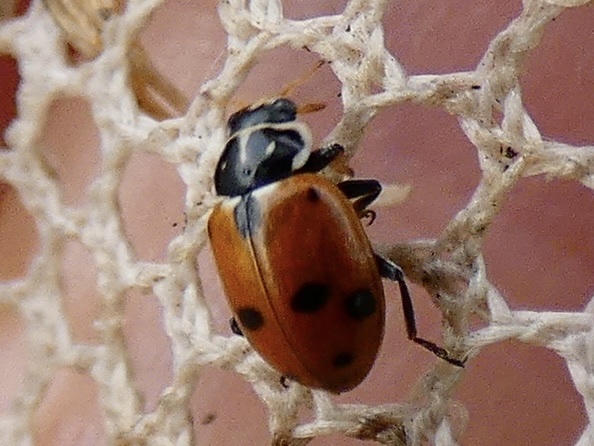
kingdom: Animalia
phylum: Arthropoda
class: Insecta
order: Coleoptera
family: Coccinellidae
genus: Hippodamia
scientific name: Hippodamia variegata
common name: Ladybird beetle
